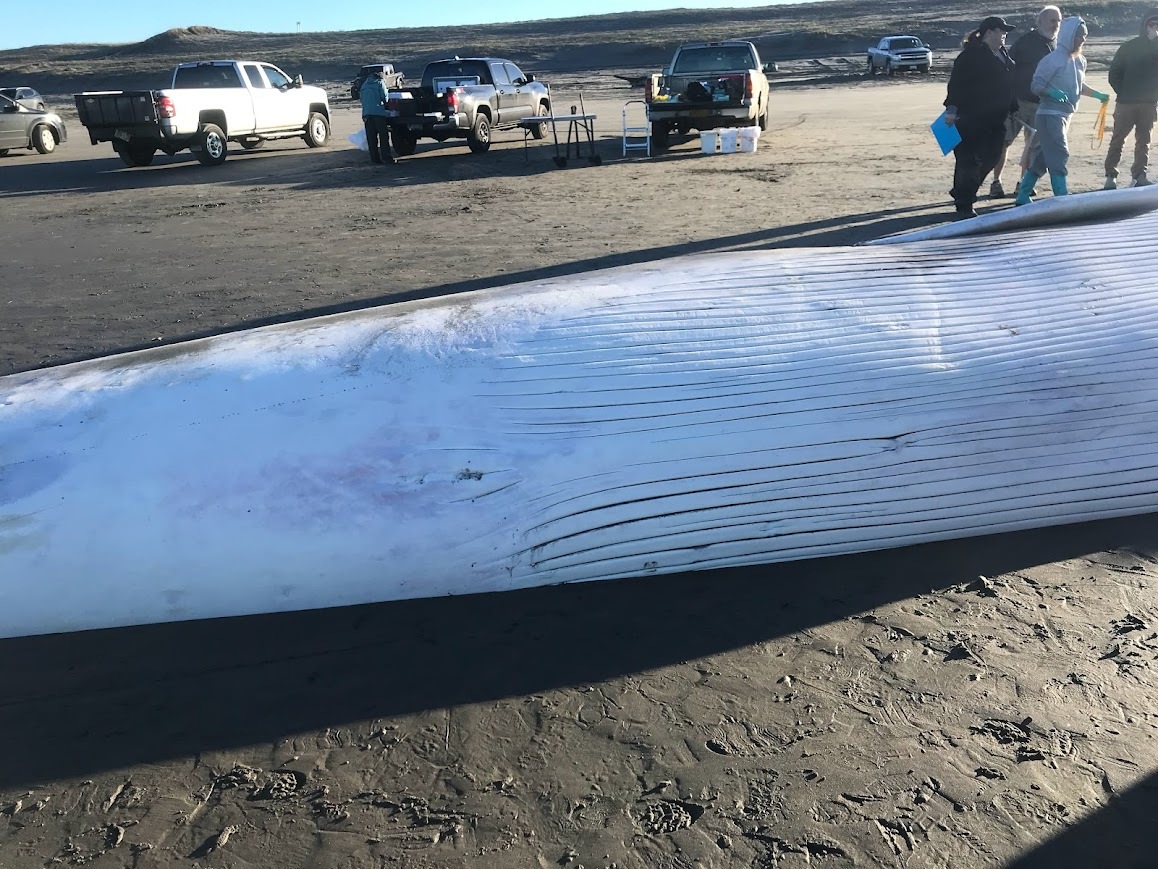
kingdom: Animalia
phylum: Chordata
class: Mammalia
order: Cetacea
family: Balaenopteridae
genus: Balaenoptera
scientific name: Balaenoptera physalus
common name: Fin whale
